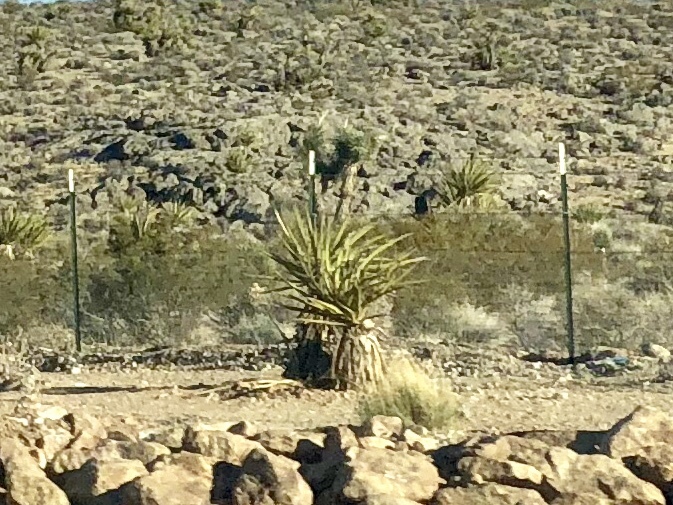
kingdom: Plantae
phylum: Tracheophyta
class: Liliopsida
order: Asparagales
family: Asparagaceae
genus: Yucca
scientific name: Yucca schidigera
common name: Mojave yucca
